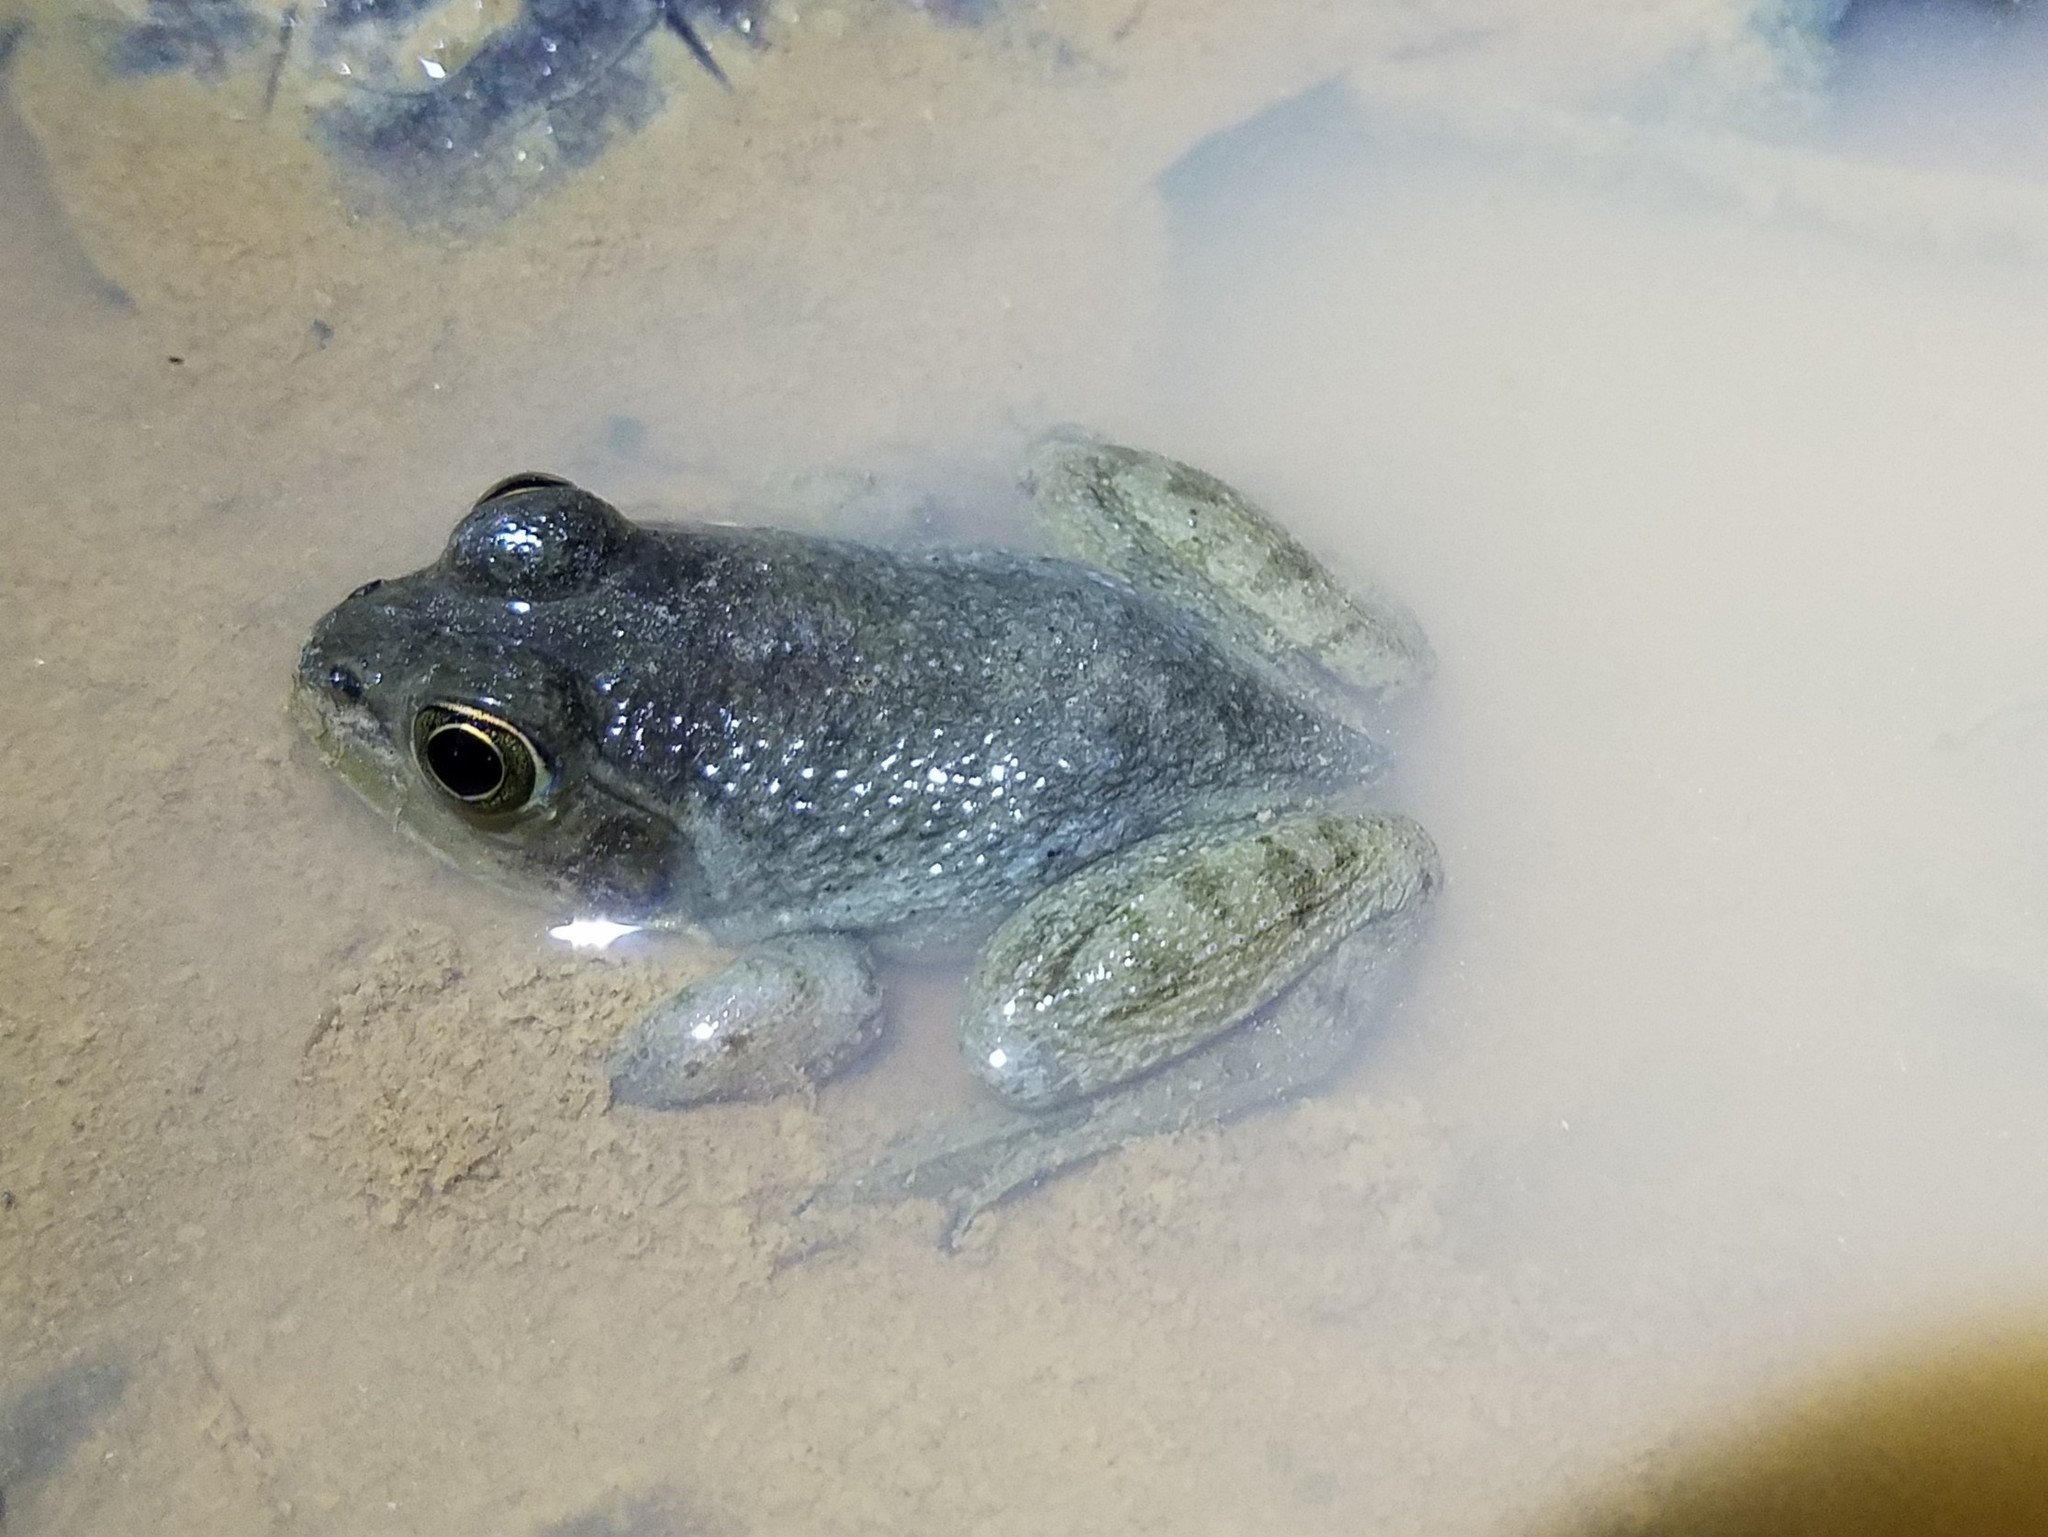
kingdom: Animalia
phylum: Chordata
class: Amphibia
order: Anura
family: Ranidae
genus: Lithobates
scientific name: Lithobates catesbeianus
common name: American bullfrog
